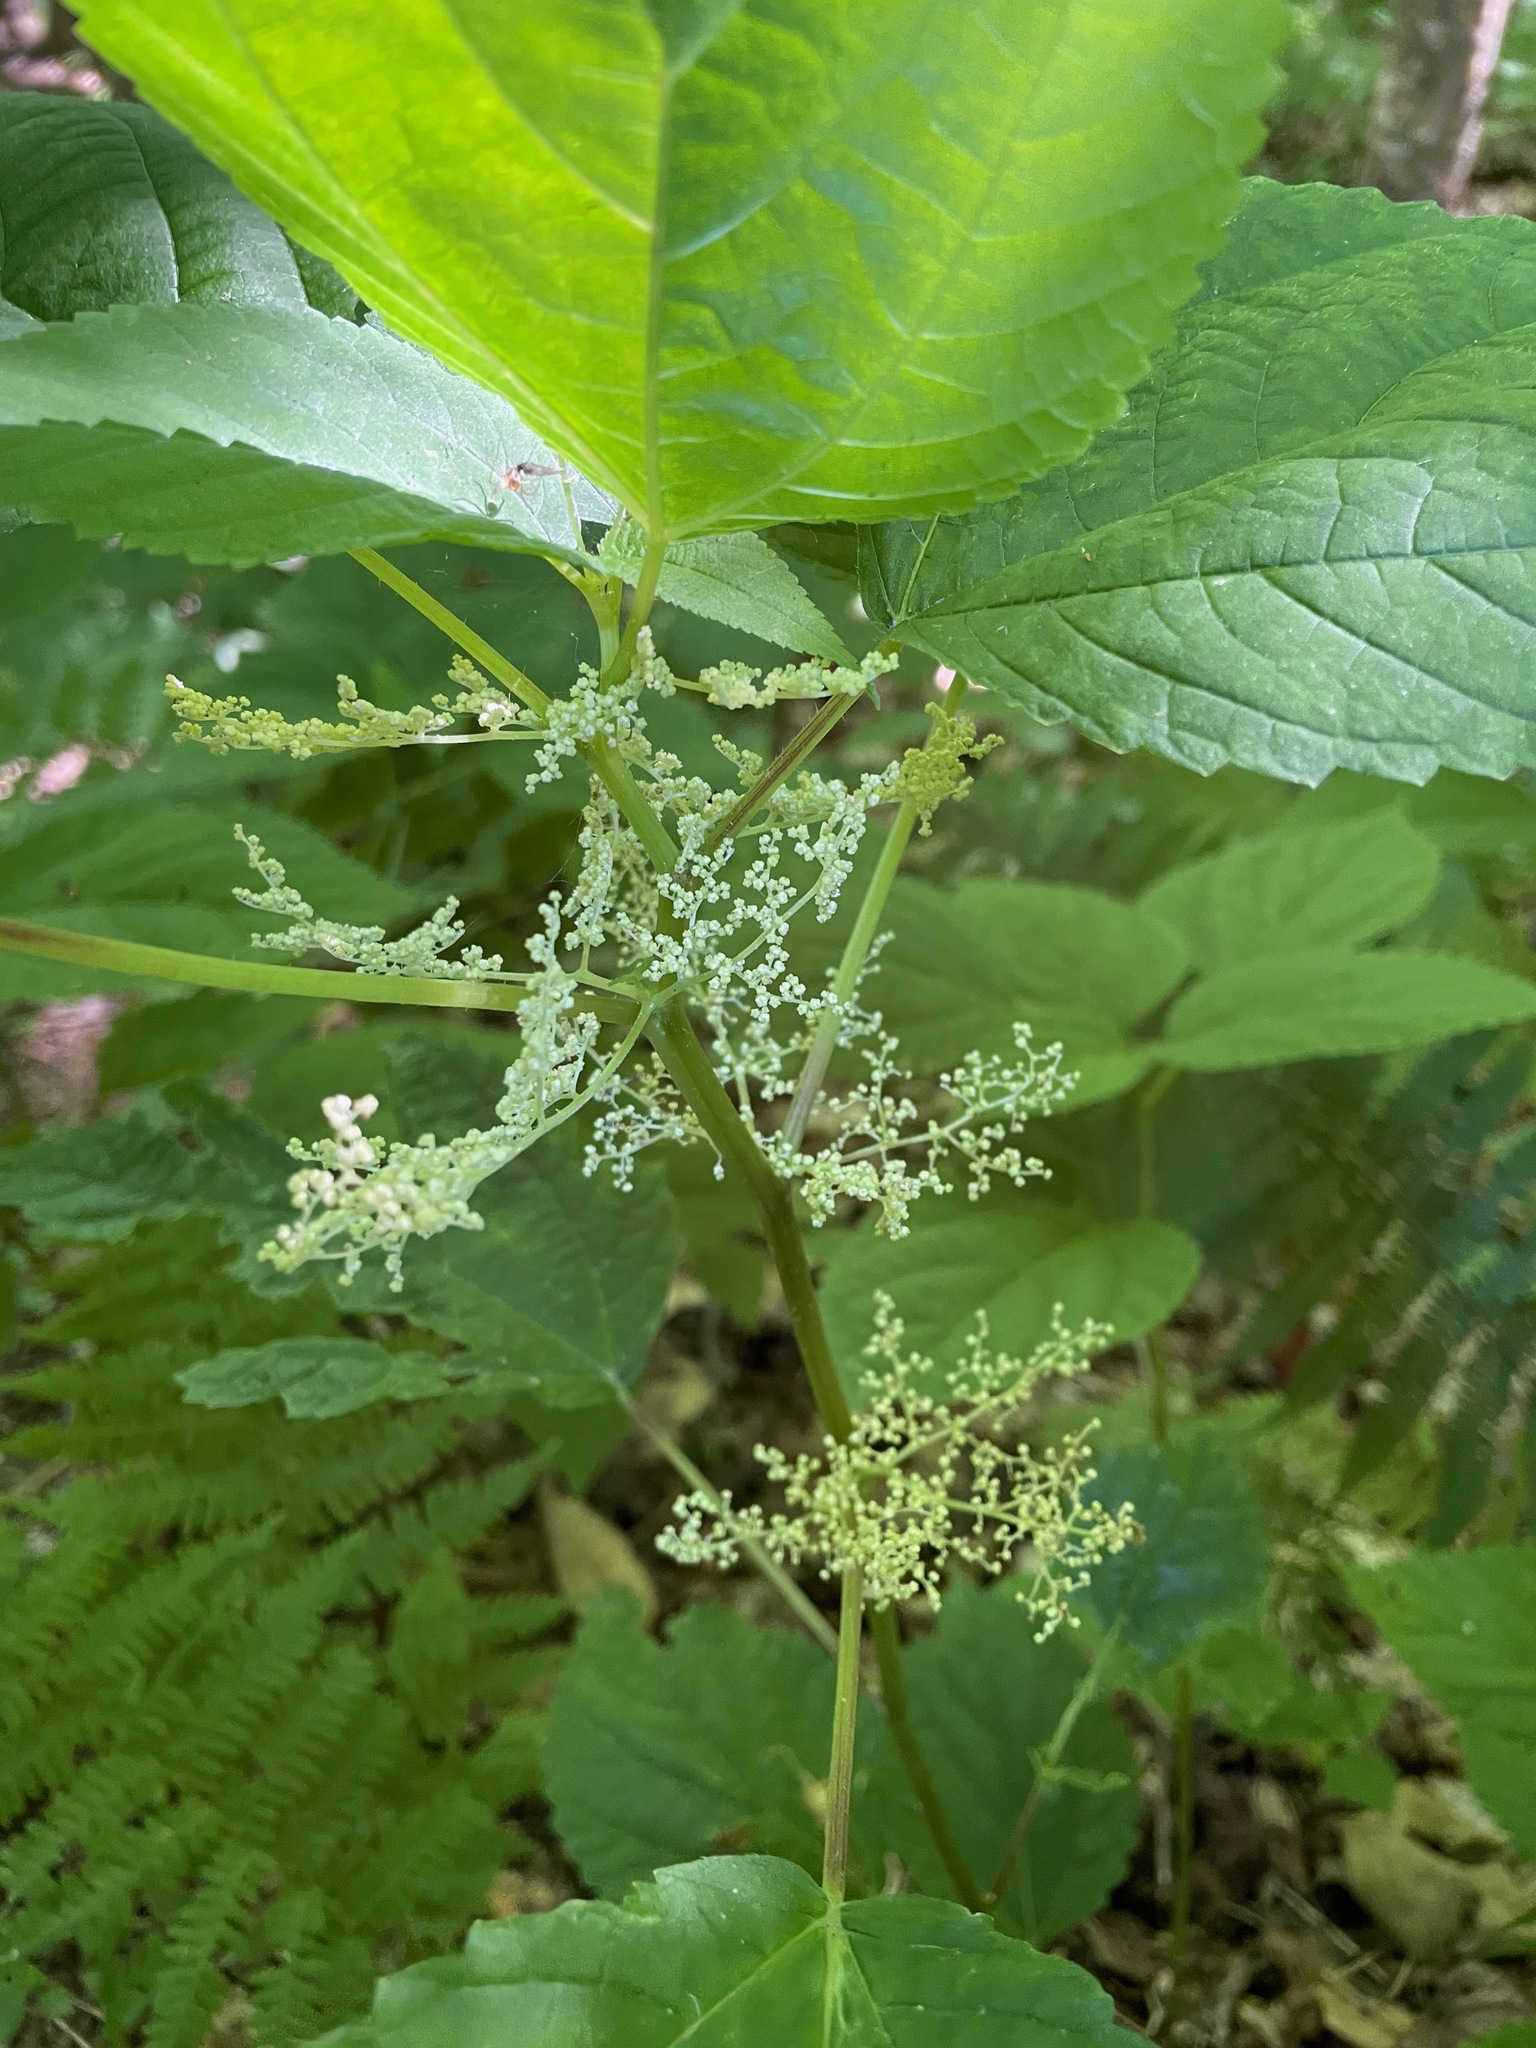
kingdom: Plantae
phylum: Tracheophyta
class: Magnoliopsida
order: Rosales
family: Urticaceae
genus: Laportea
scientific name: Laportea canadensis
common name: Canada nettle
